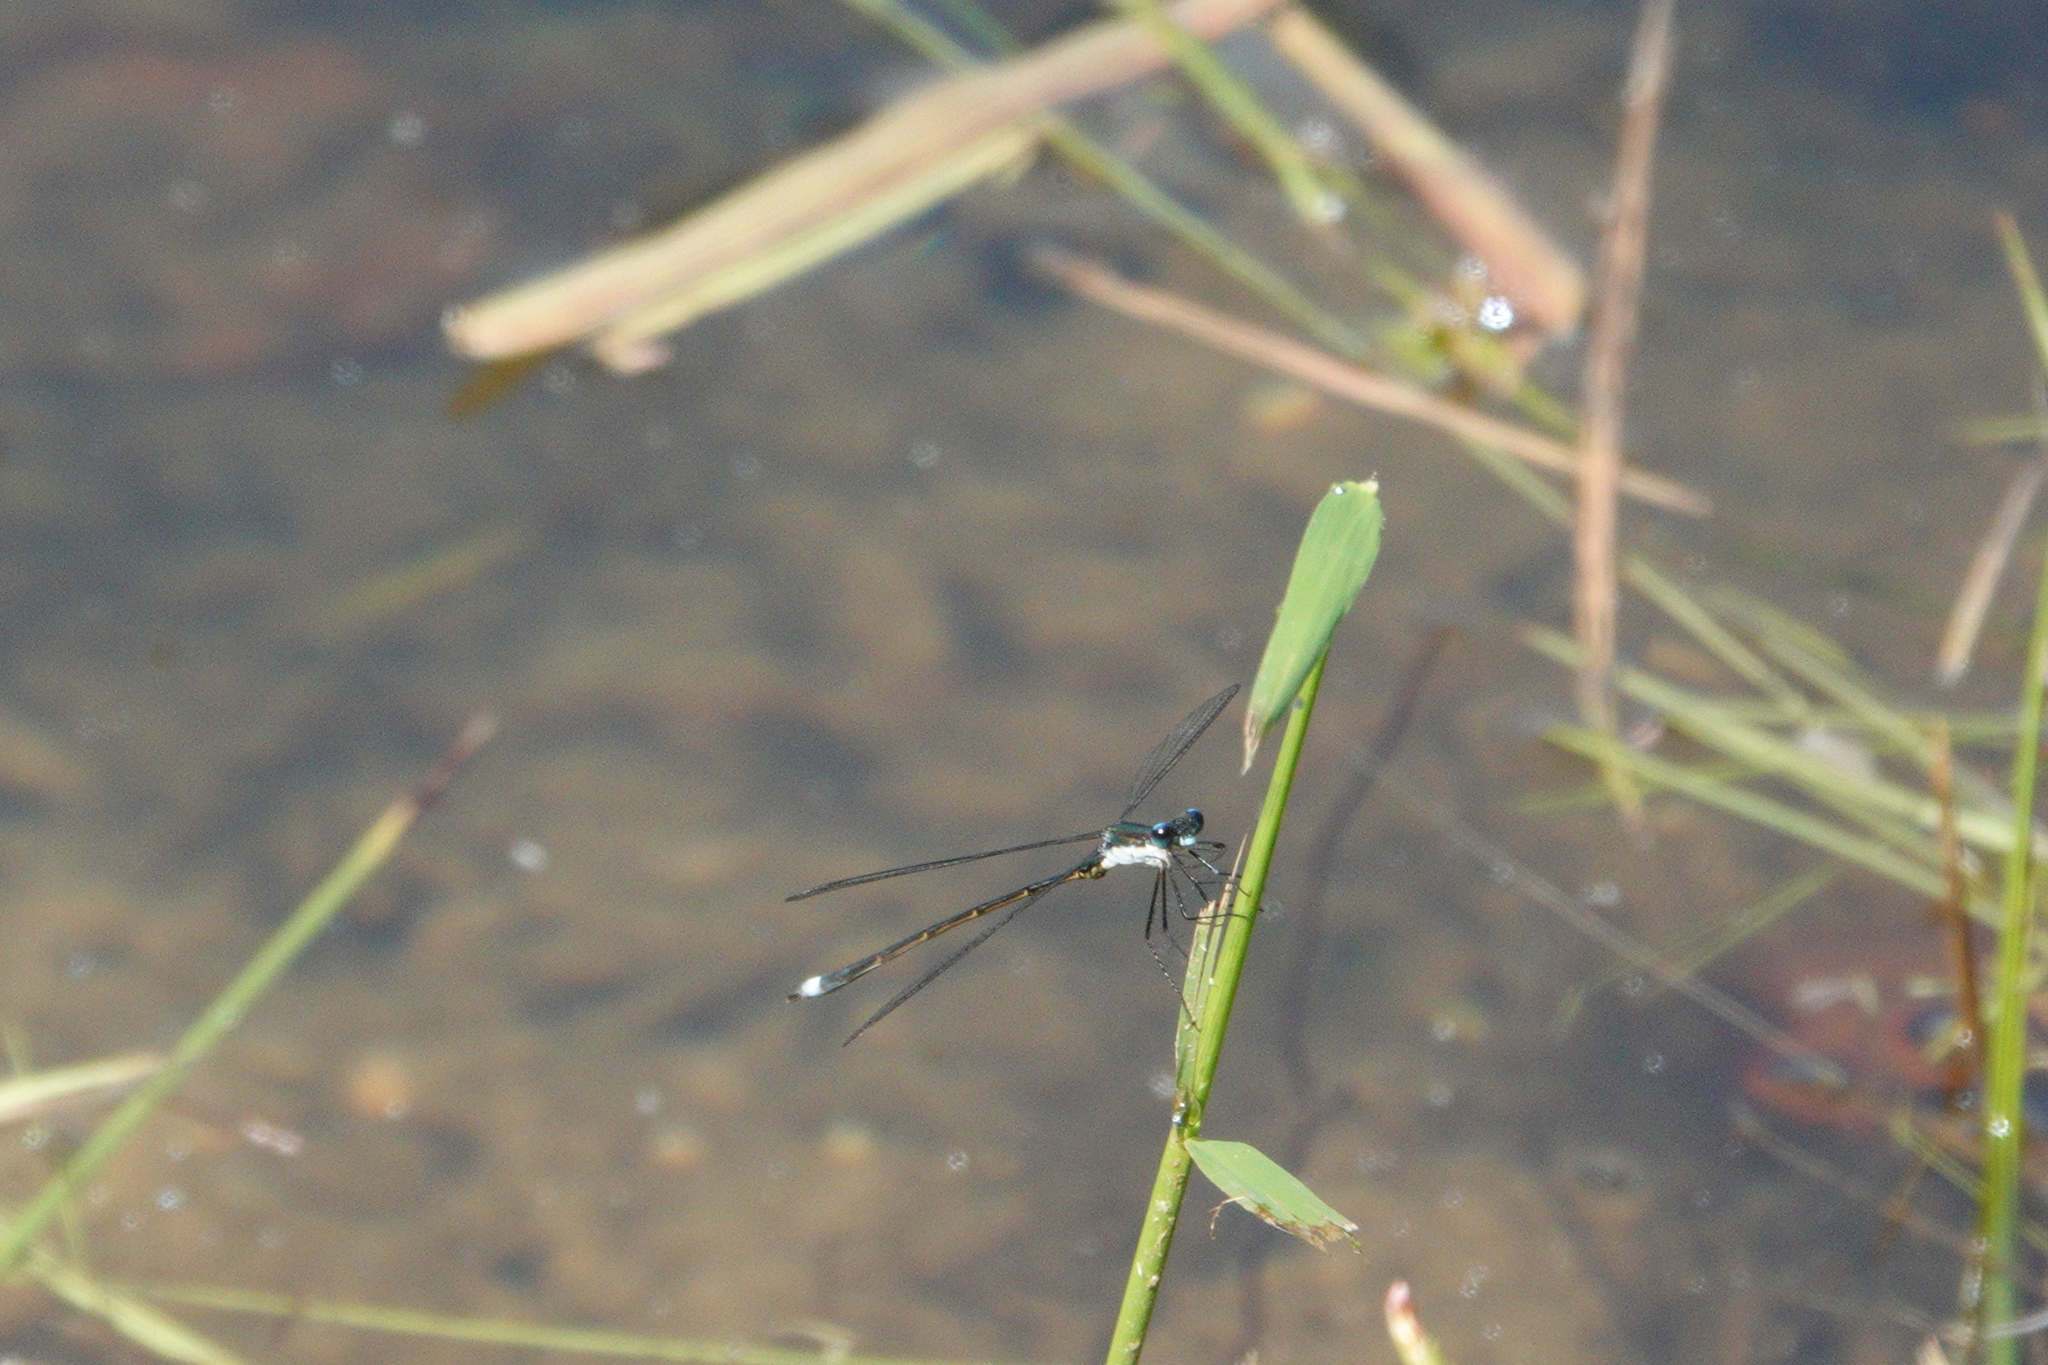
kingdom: Animalia
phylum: Arthropoda
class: Insecta
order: Odonata
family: Lestidae
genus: Lestes
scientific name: Lestes vigilax
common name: Swamp spreadwing
